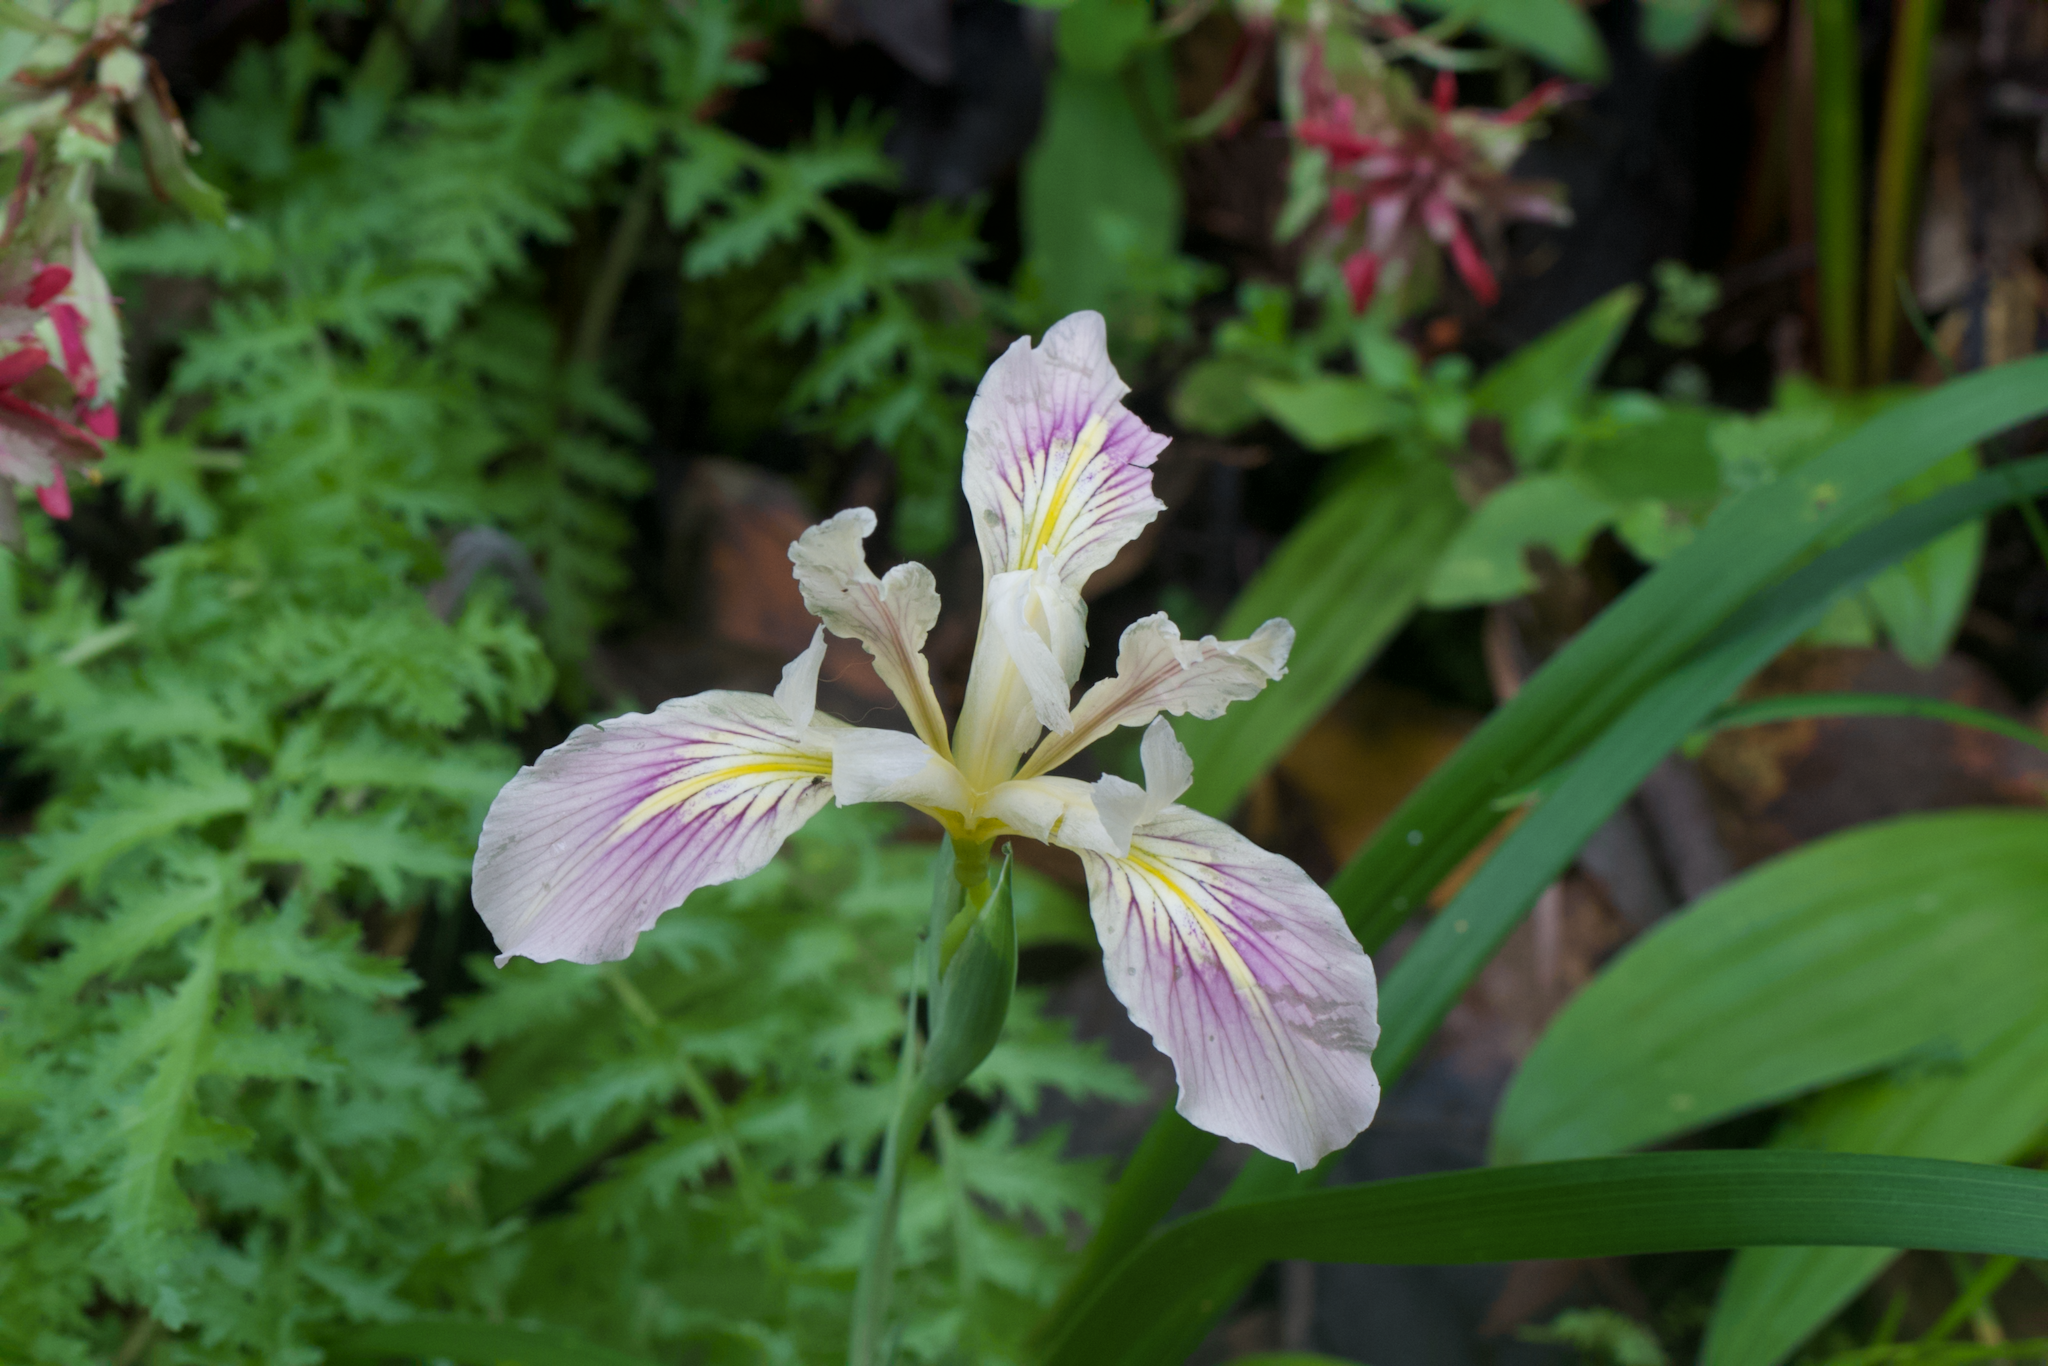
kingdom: Plantae
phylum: Tracheophyta
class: Liliopsida
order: Asparagales
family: Iridaceae
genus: Iris
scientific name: Iris douglasiana
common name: Marin iris
